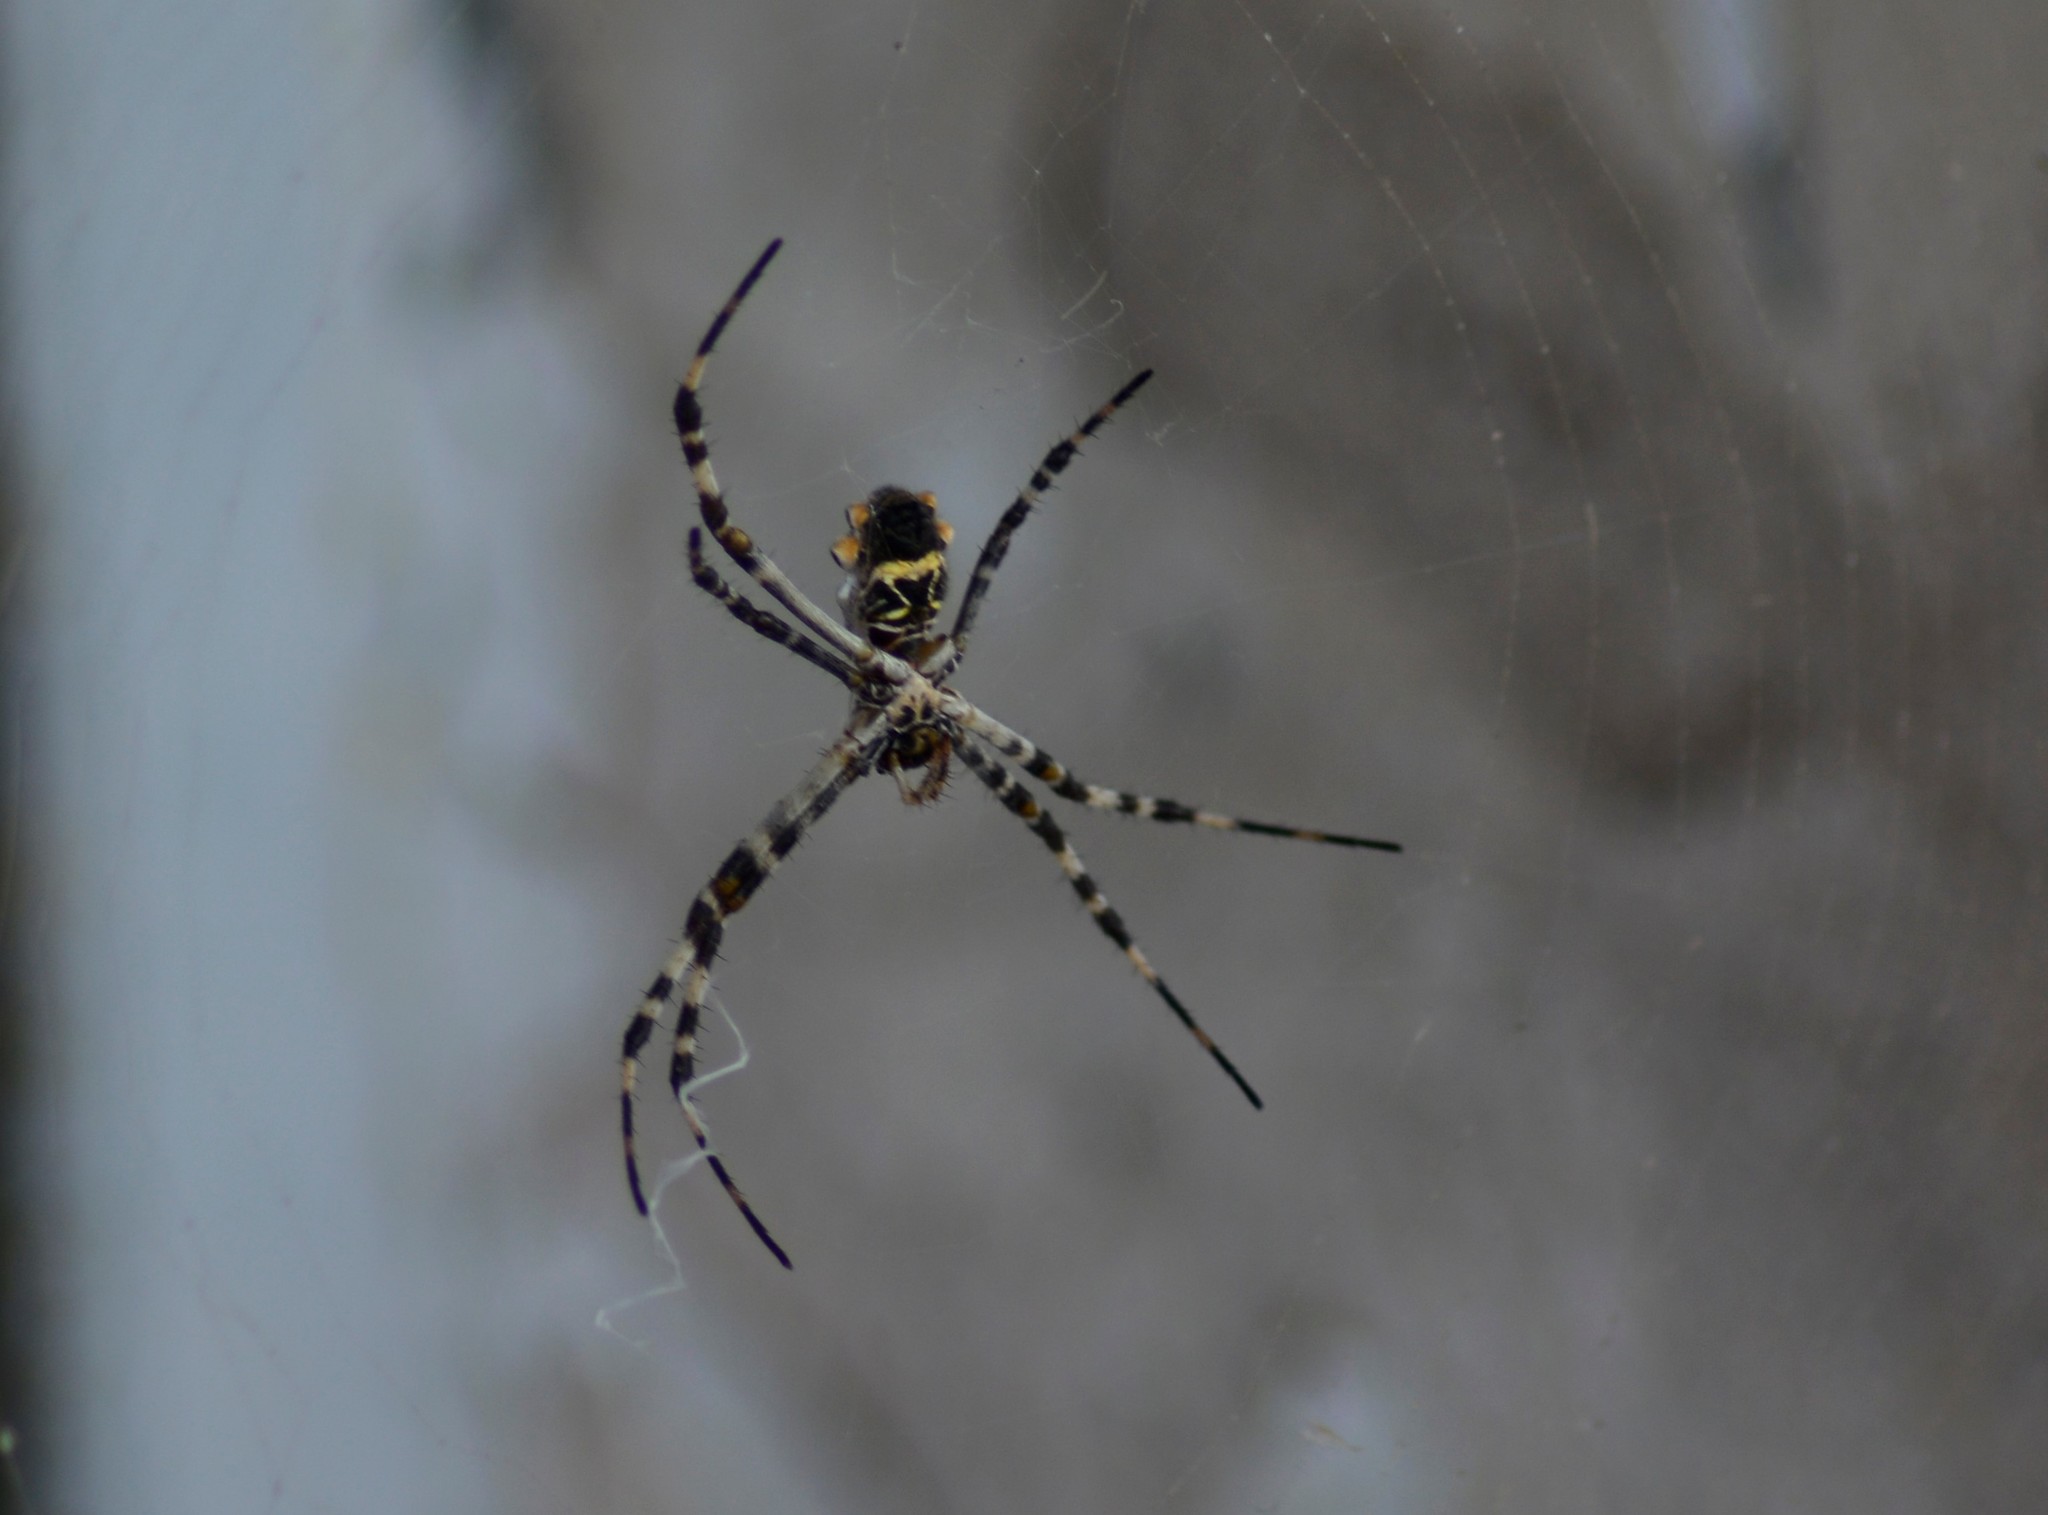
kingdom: Animalia
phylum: Arthropoda
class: Arachnida
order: Araneae
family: Araneidae
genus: Argiope
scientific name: Argiope argentata
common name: Orb weavers
